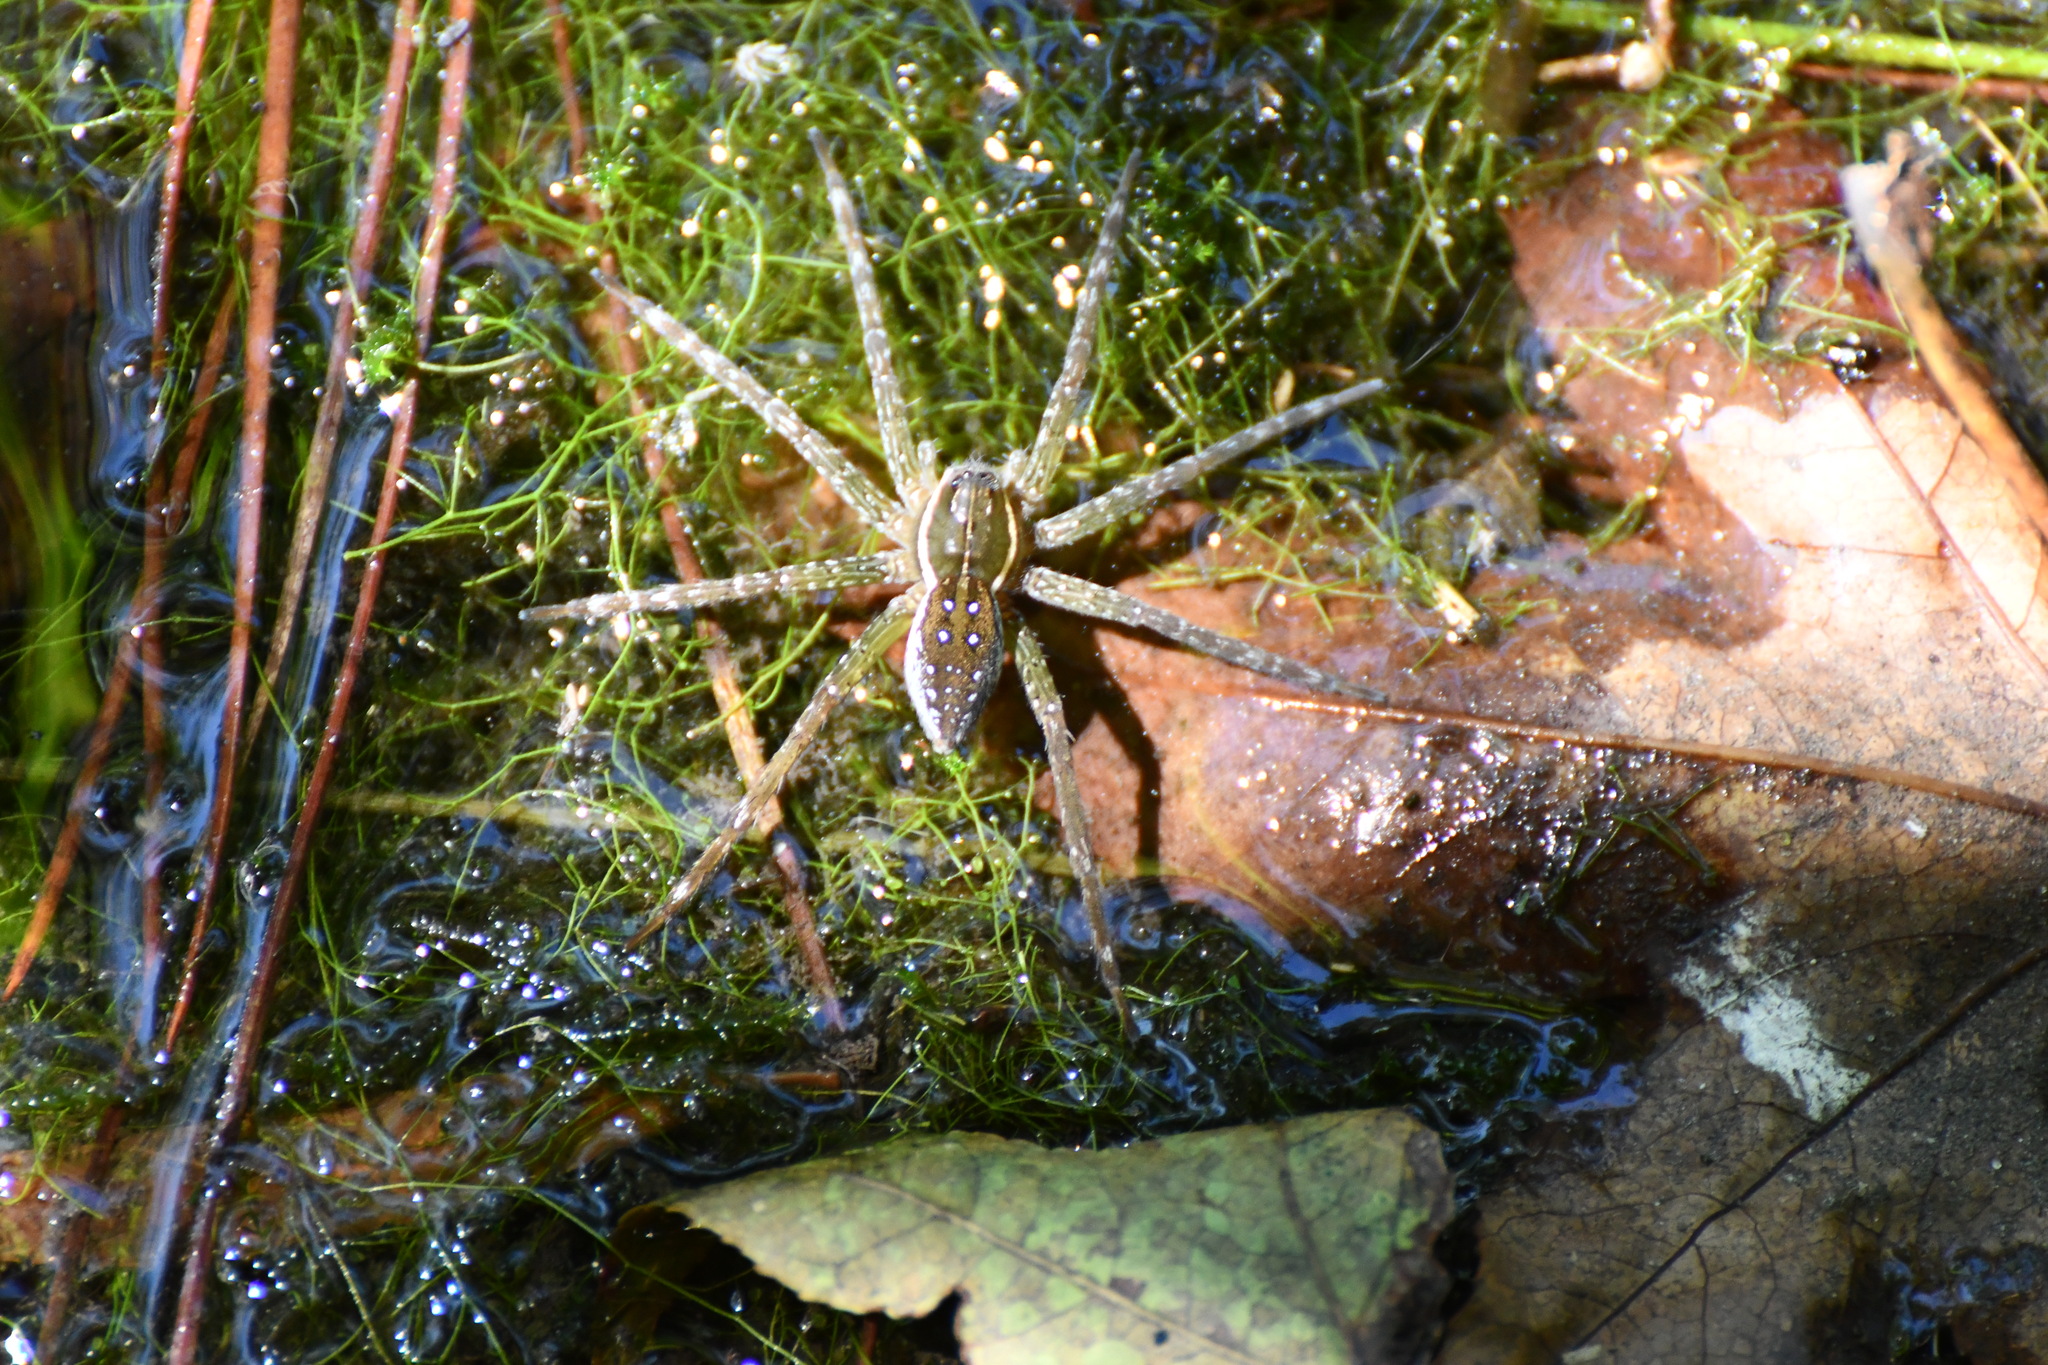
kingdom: Animalia
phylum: Arthropoda
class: Arachnida
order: Araneae
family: Pisauridae
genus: Dolomedes
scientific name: Dolomedes triton
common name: Six-spotted fishing spider
